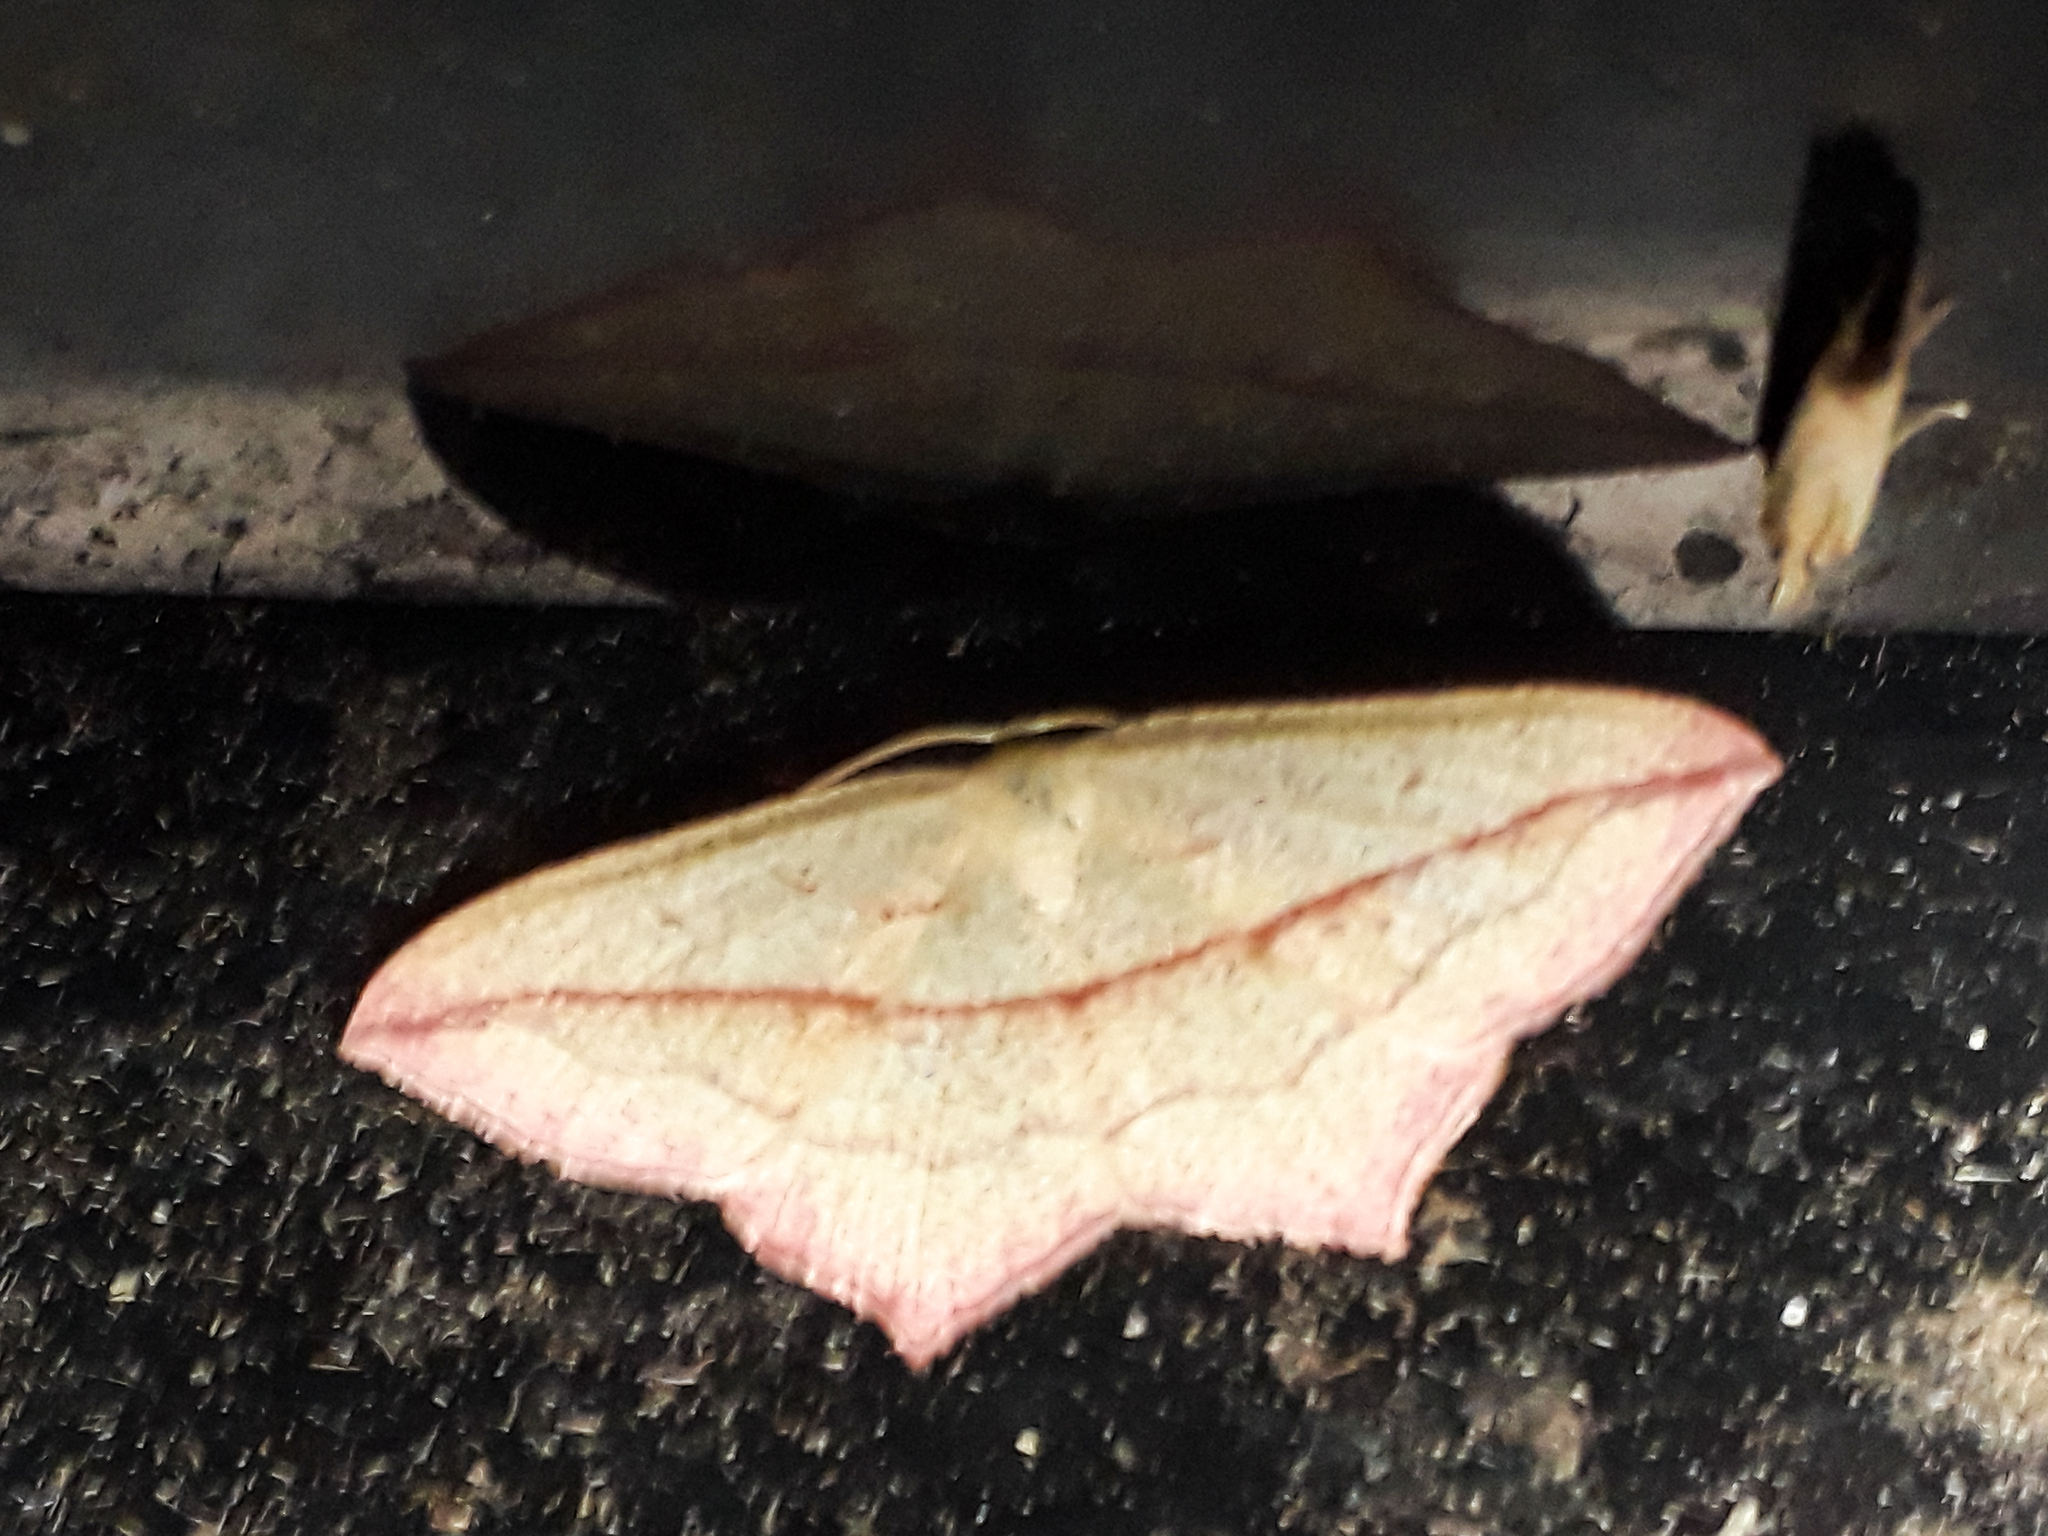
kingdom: Animalia
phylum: Arthropoda
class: Insecta
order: Lepidoptera
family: Geometridae
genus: Timandra
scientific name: Timandra comae
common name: Blood-vein
